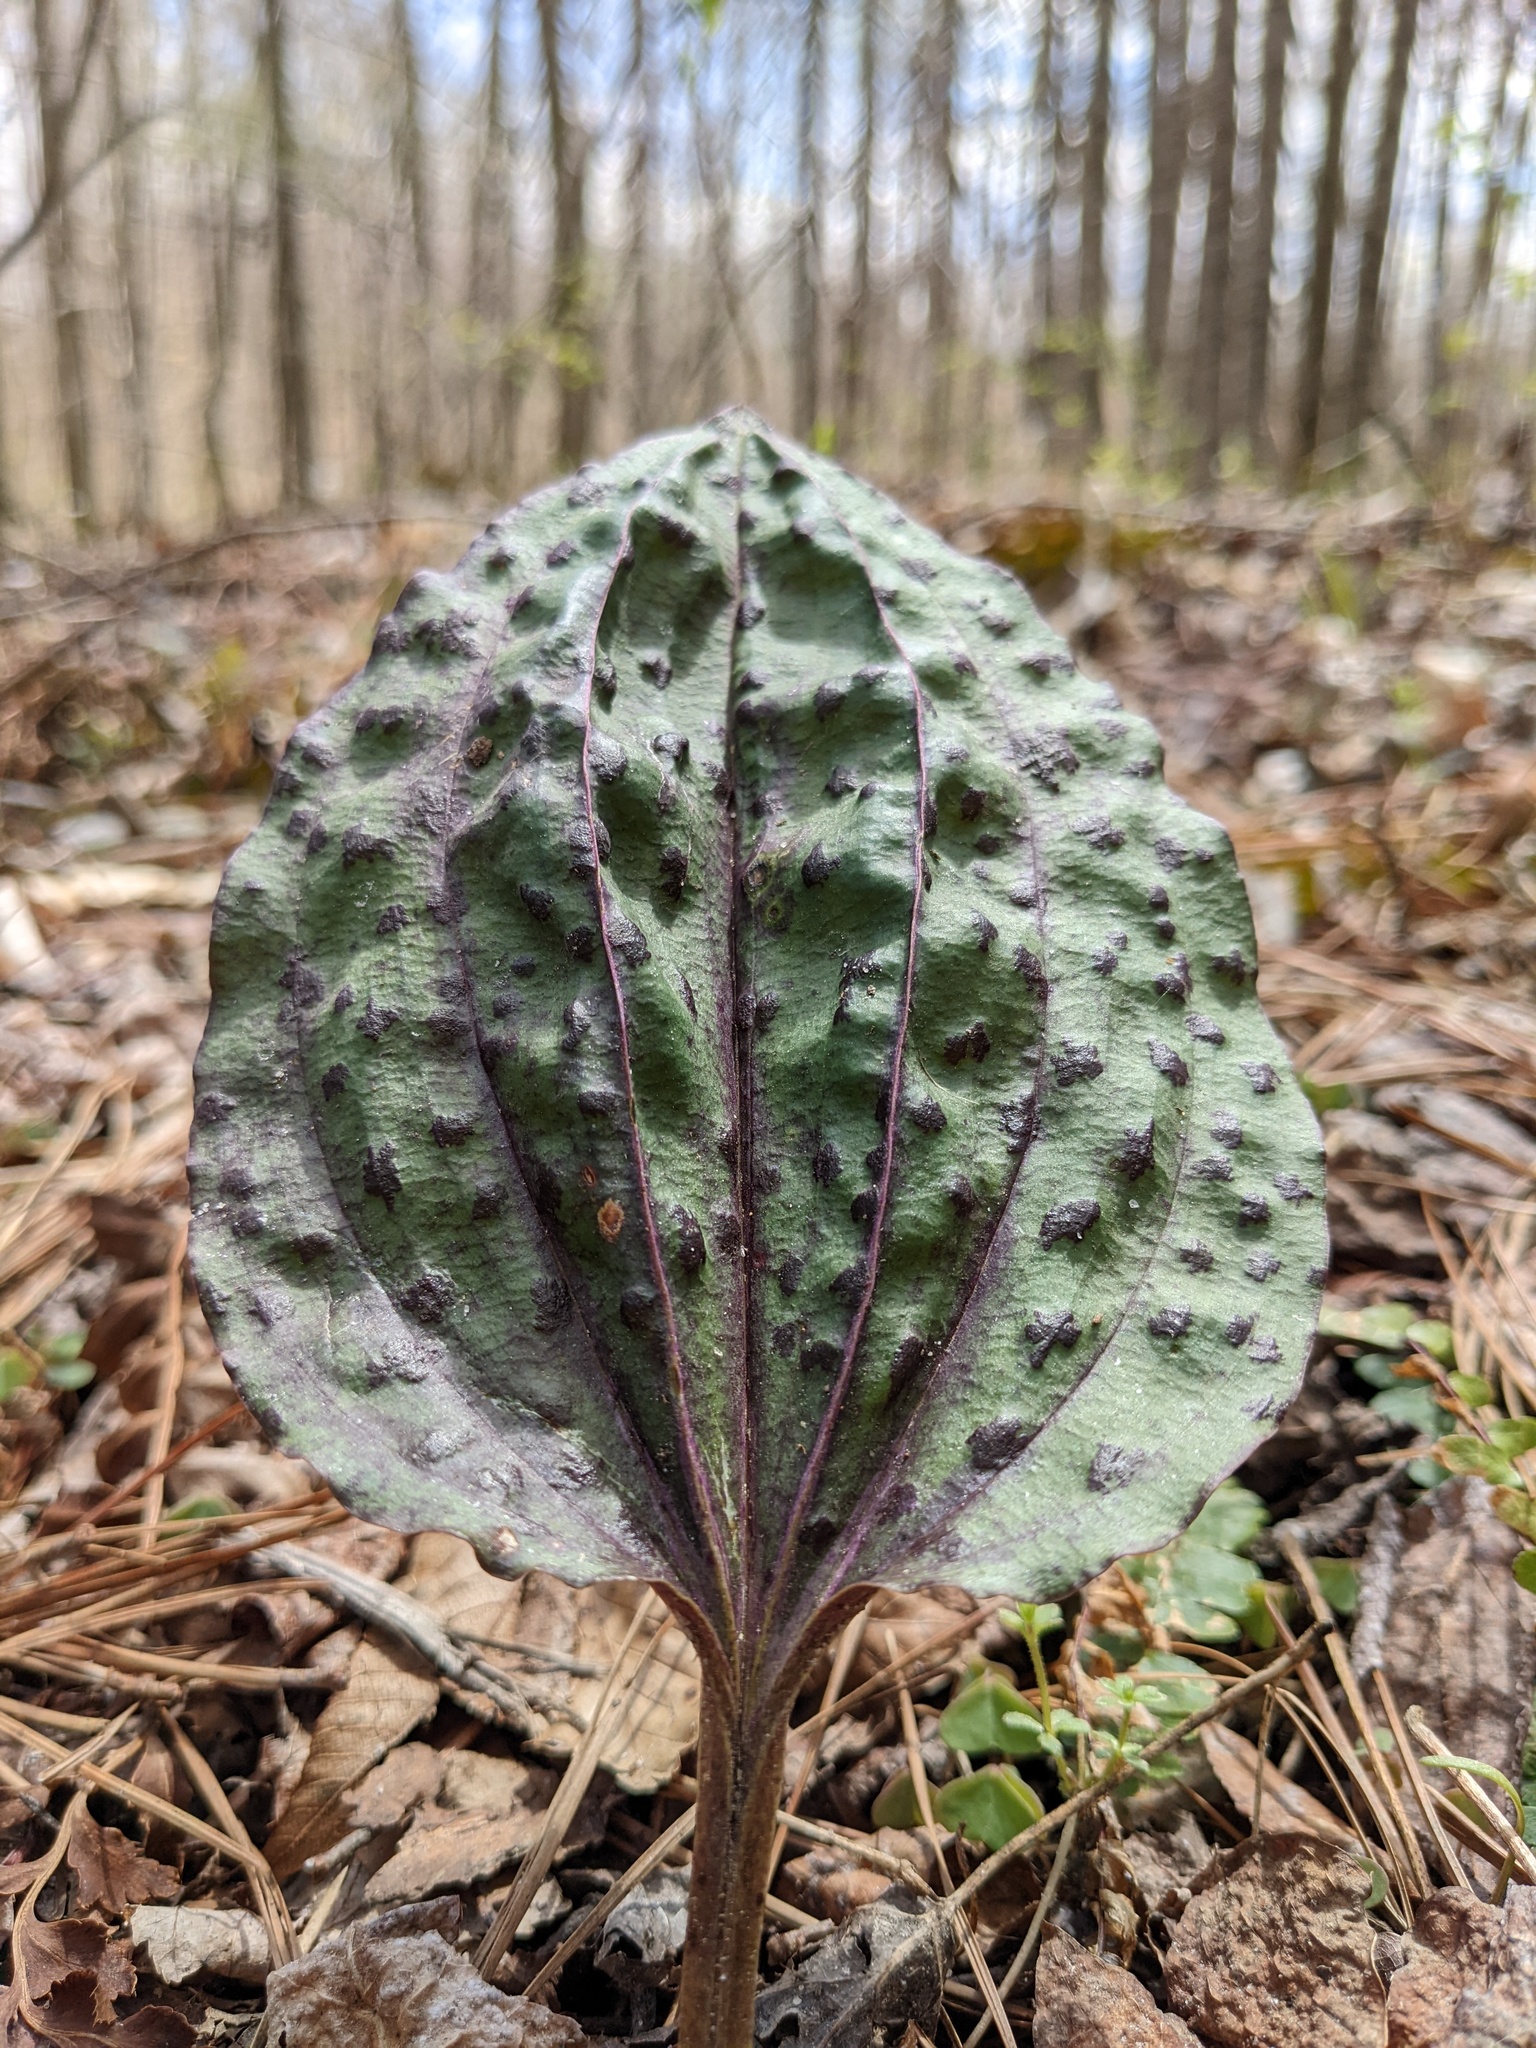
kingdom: Plantae
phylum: Tracheophyta
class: Liliopsida
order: Asparagales
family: Orchidaceae
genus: Tipularia
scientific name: Tipularia discolor
